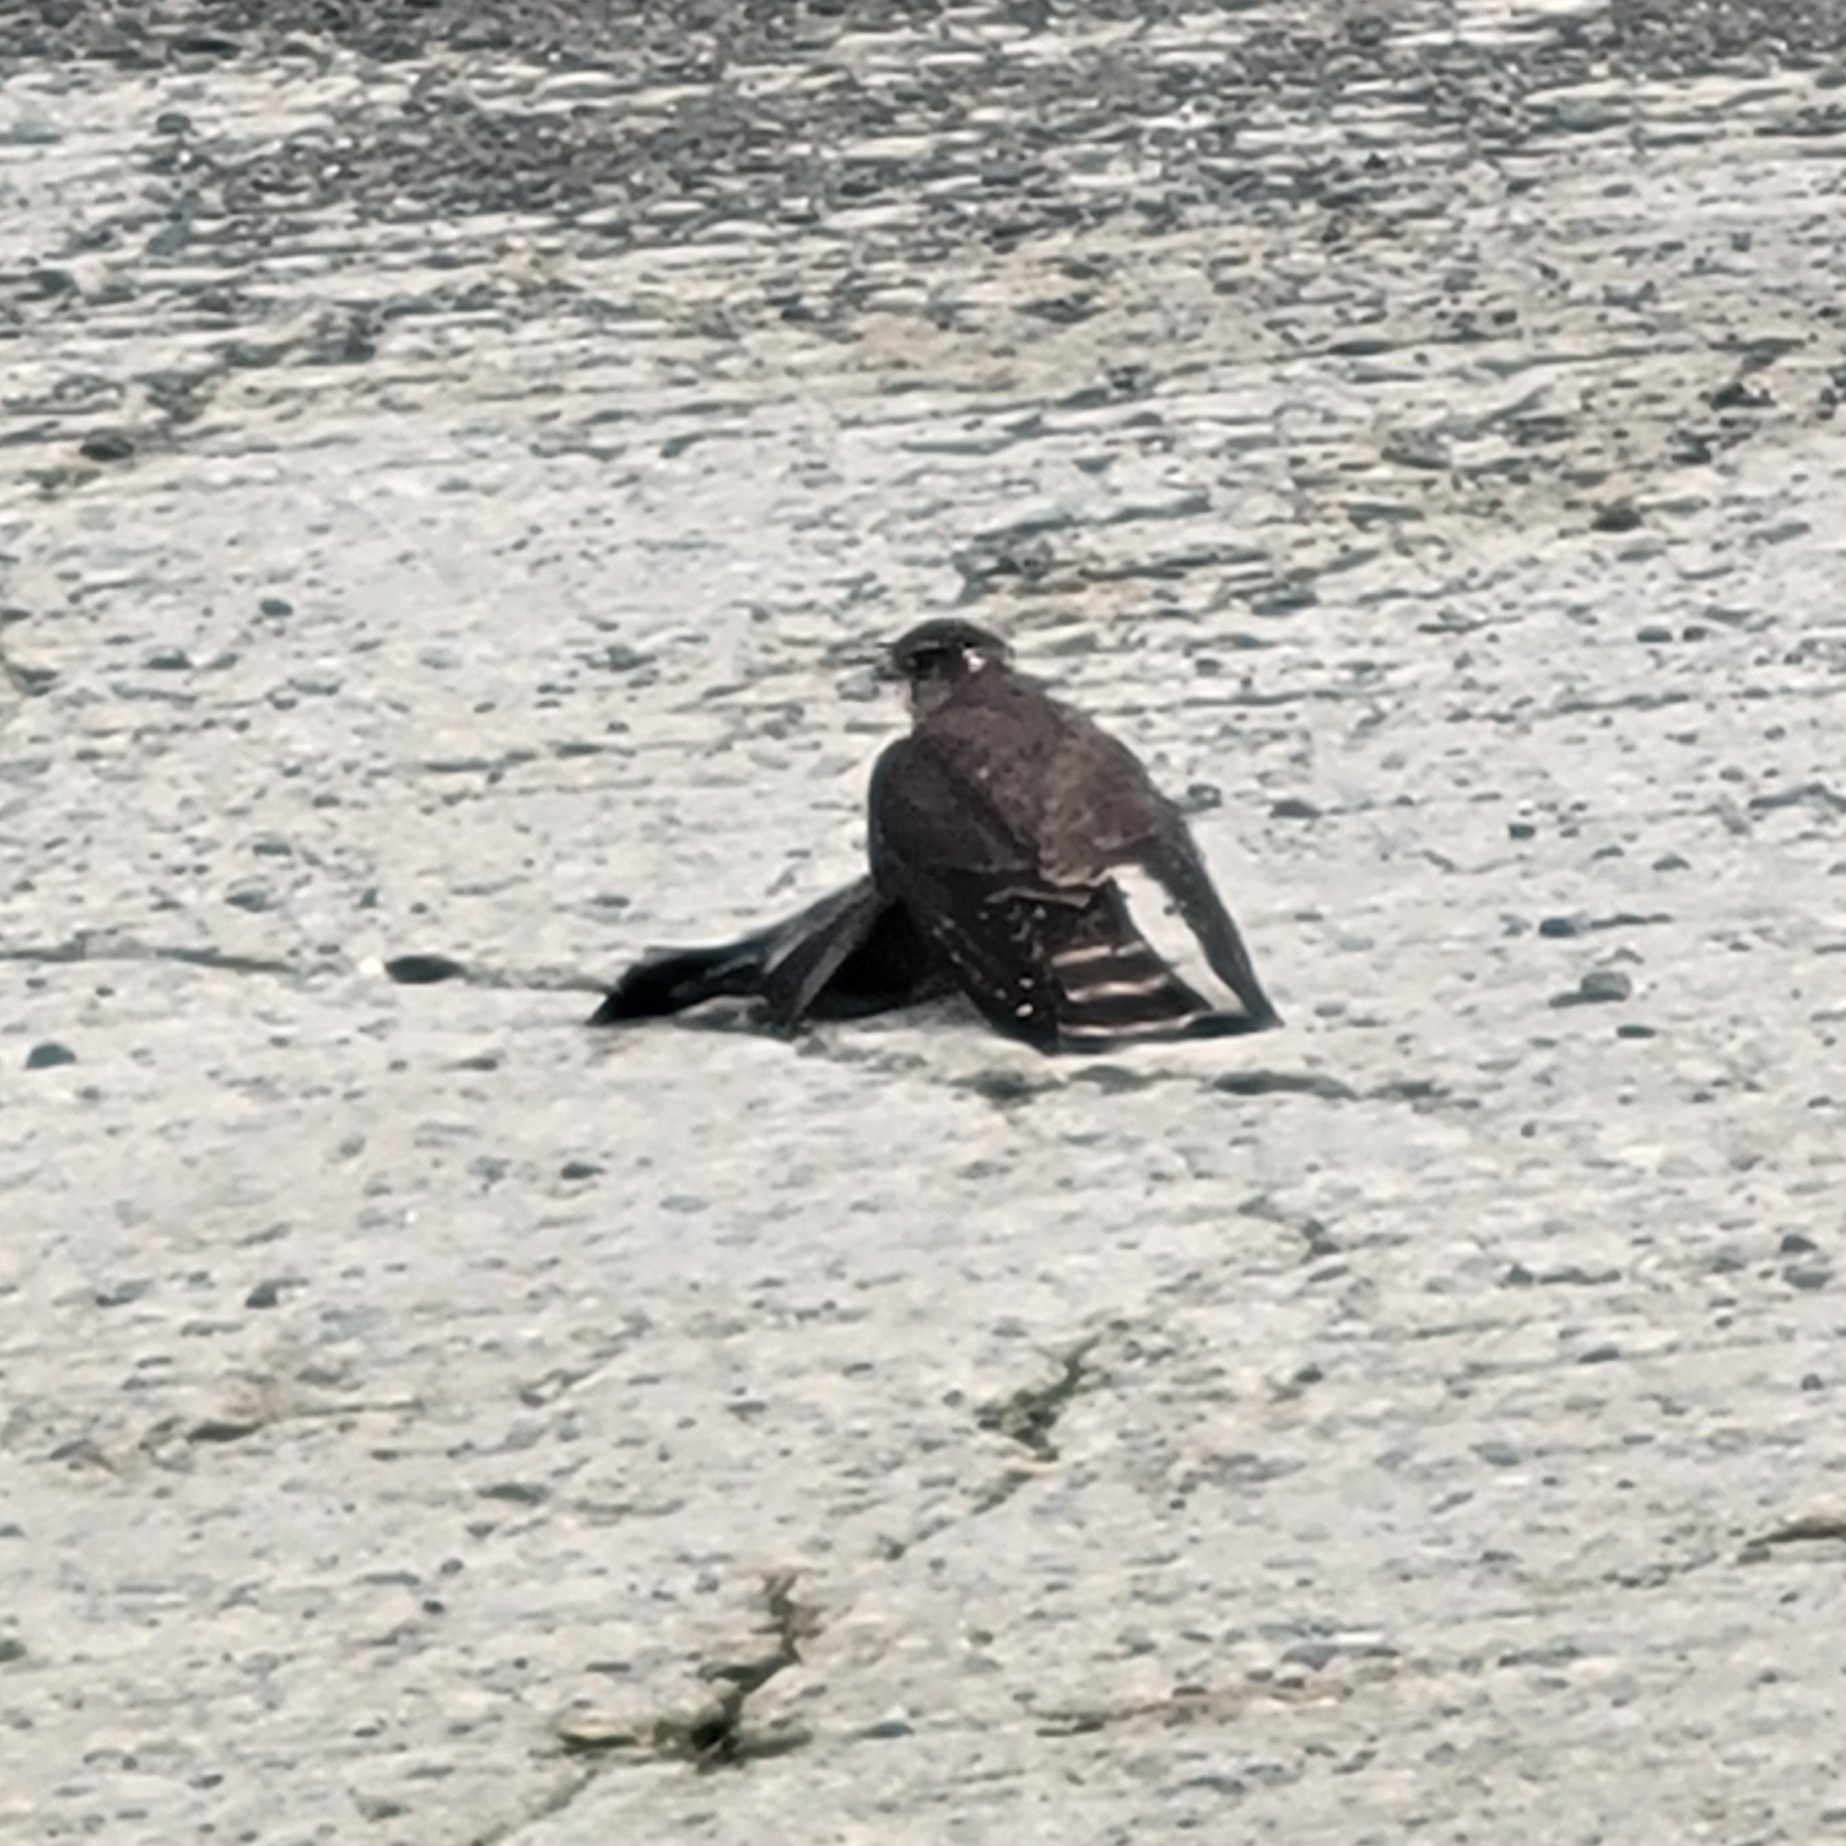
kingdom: Animalia
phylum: Chordata
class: Aves
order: Falconiformes
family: Falconidae
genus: Falco
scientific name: Falco columbarius
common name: Merlin
